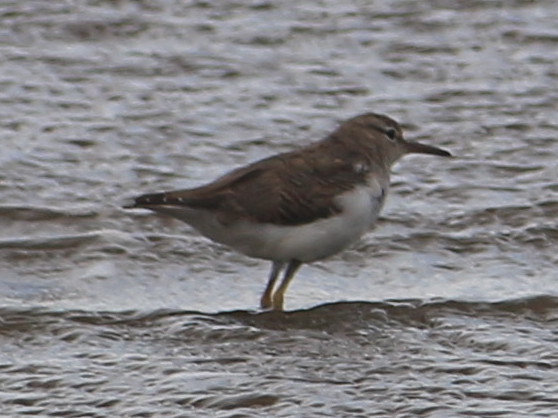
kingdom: Animalia
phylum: Chordata
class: Aves
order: Charadriiformes
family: Scolopacidae
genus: Actitis
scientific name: Actitis macularius
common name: Spotted sandpiper
